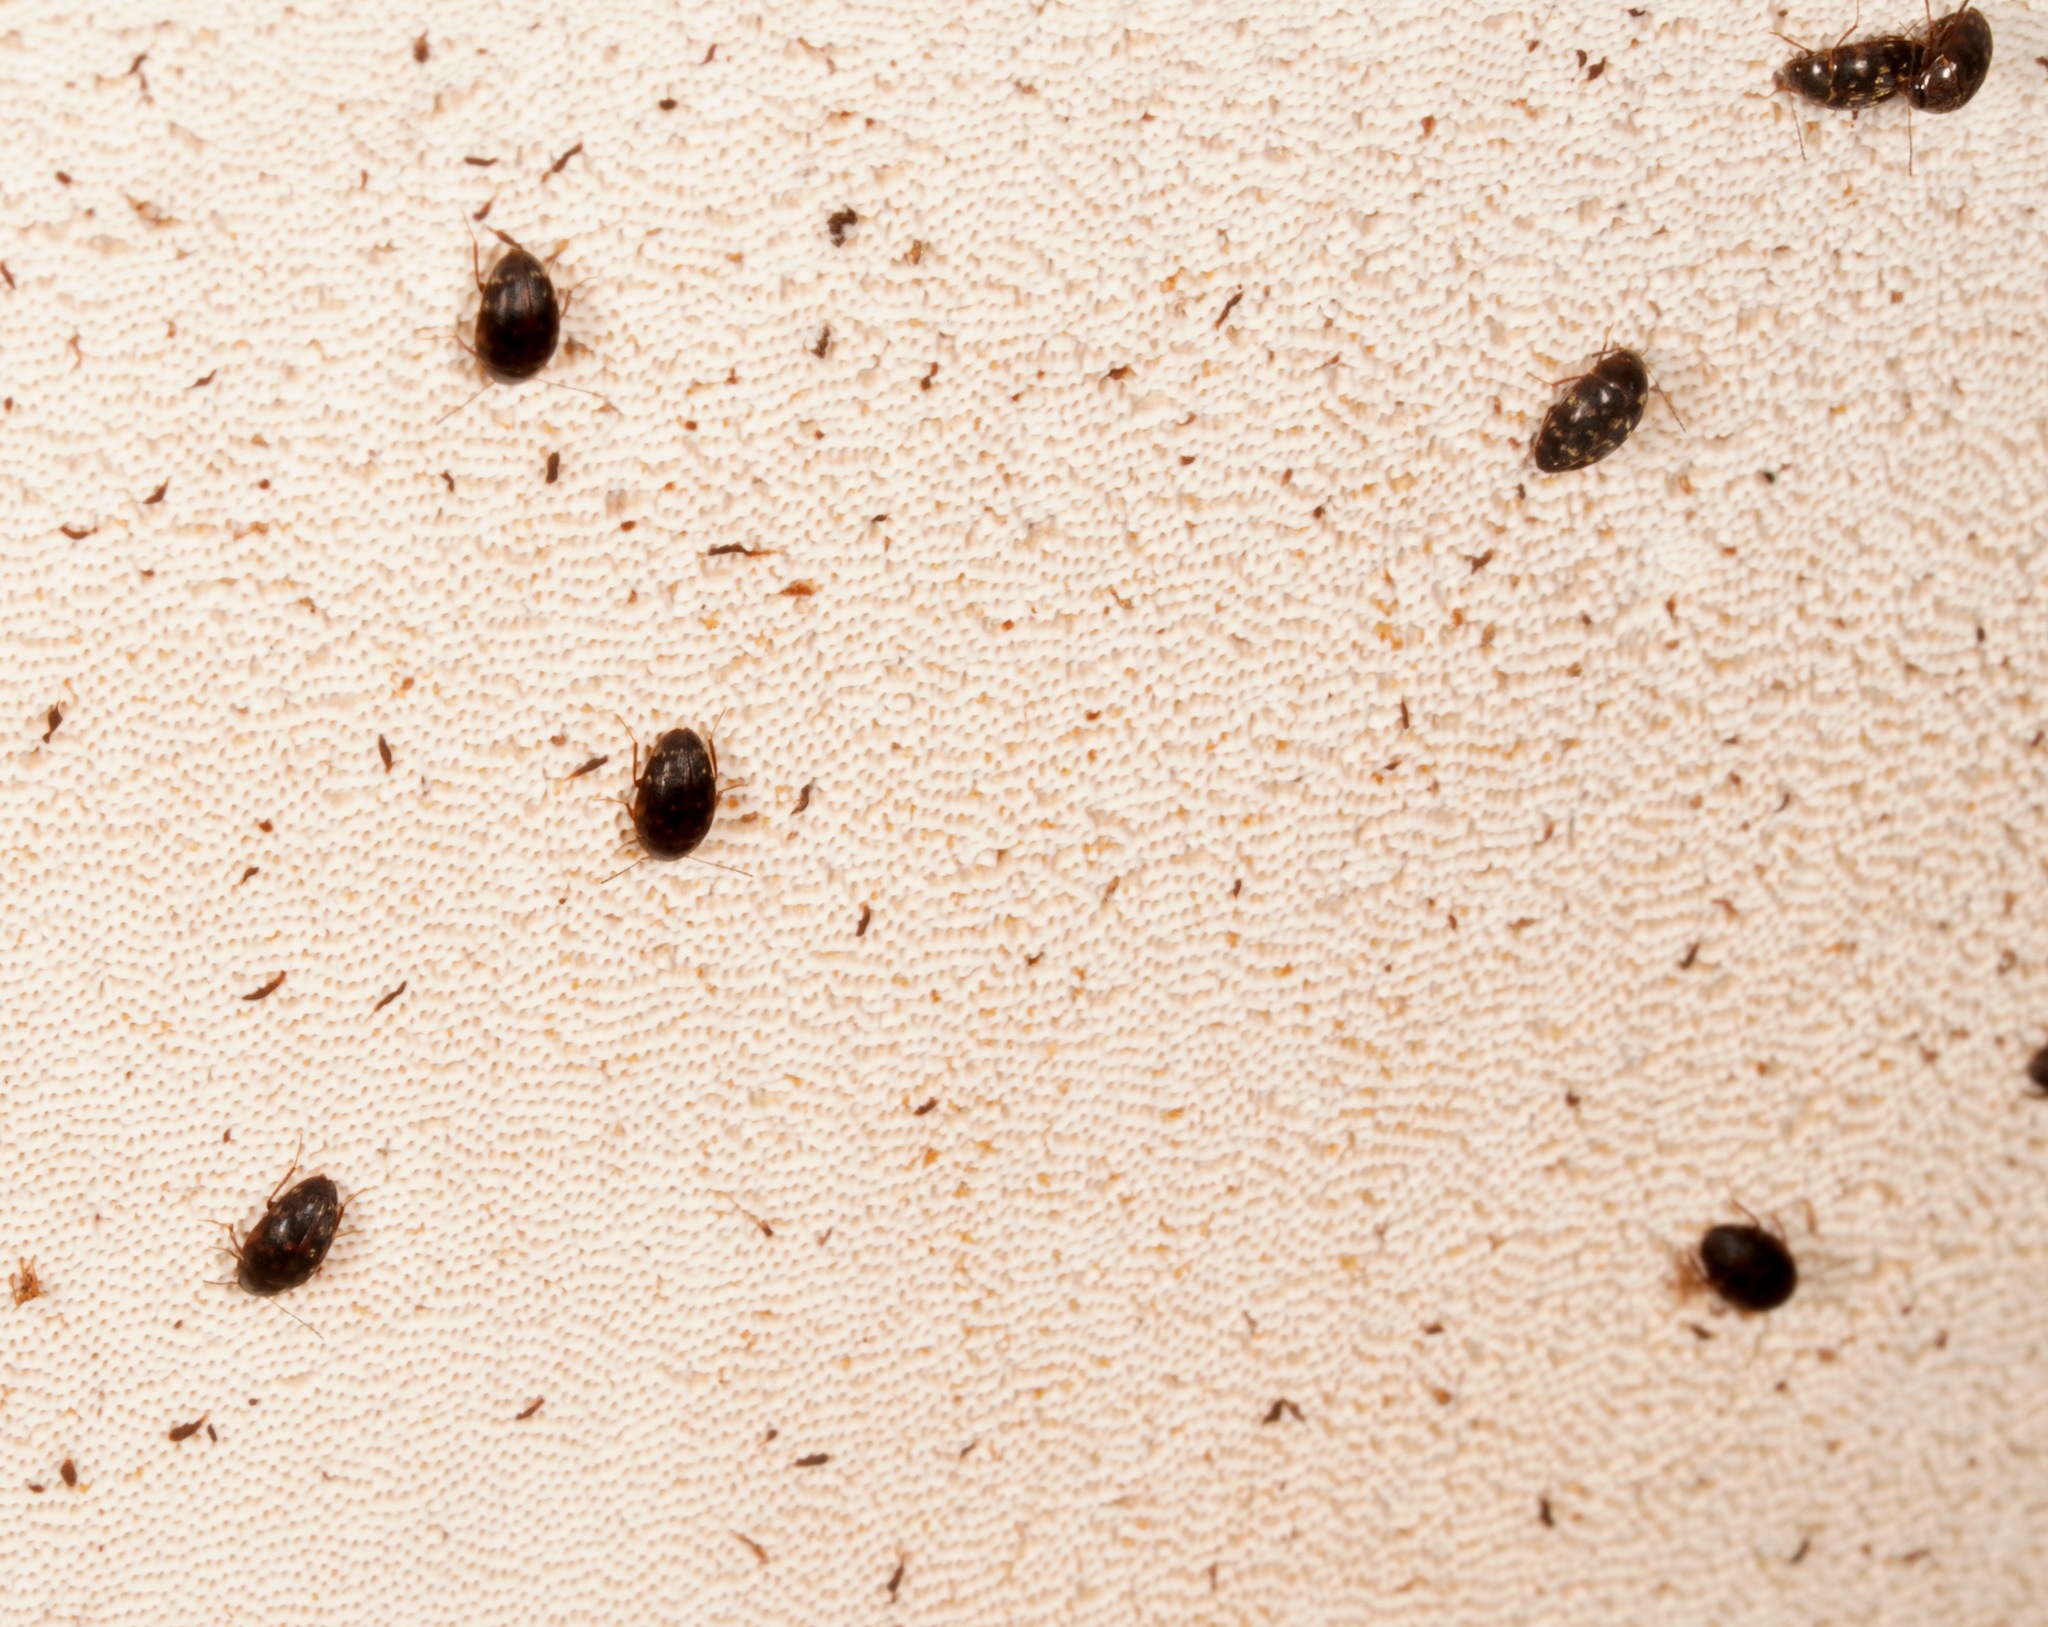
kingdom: Animalia
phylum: Arthropoda
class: Insecta
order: Coleoptera
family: Leiodidae
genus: Zearagytodes
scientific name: Zearagytodes maculifer
